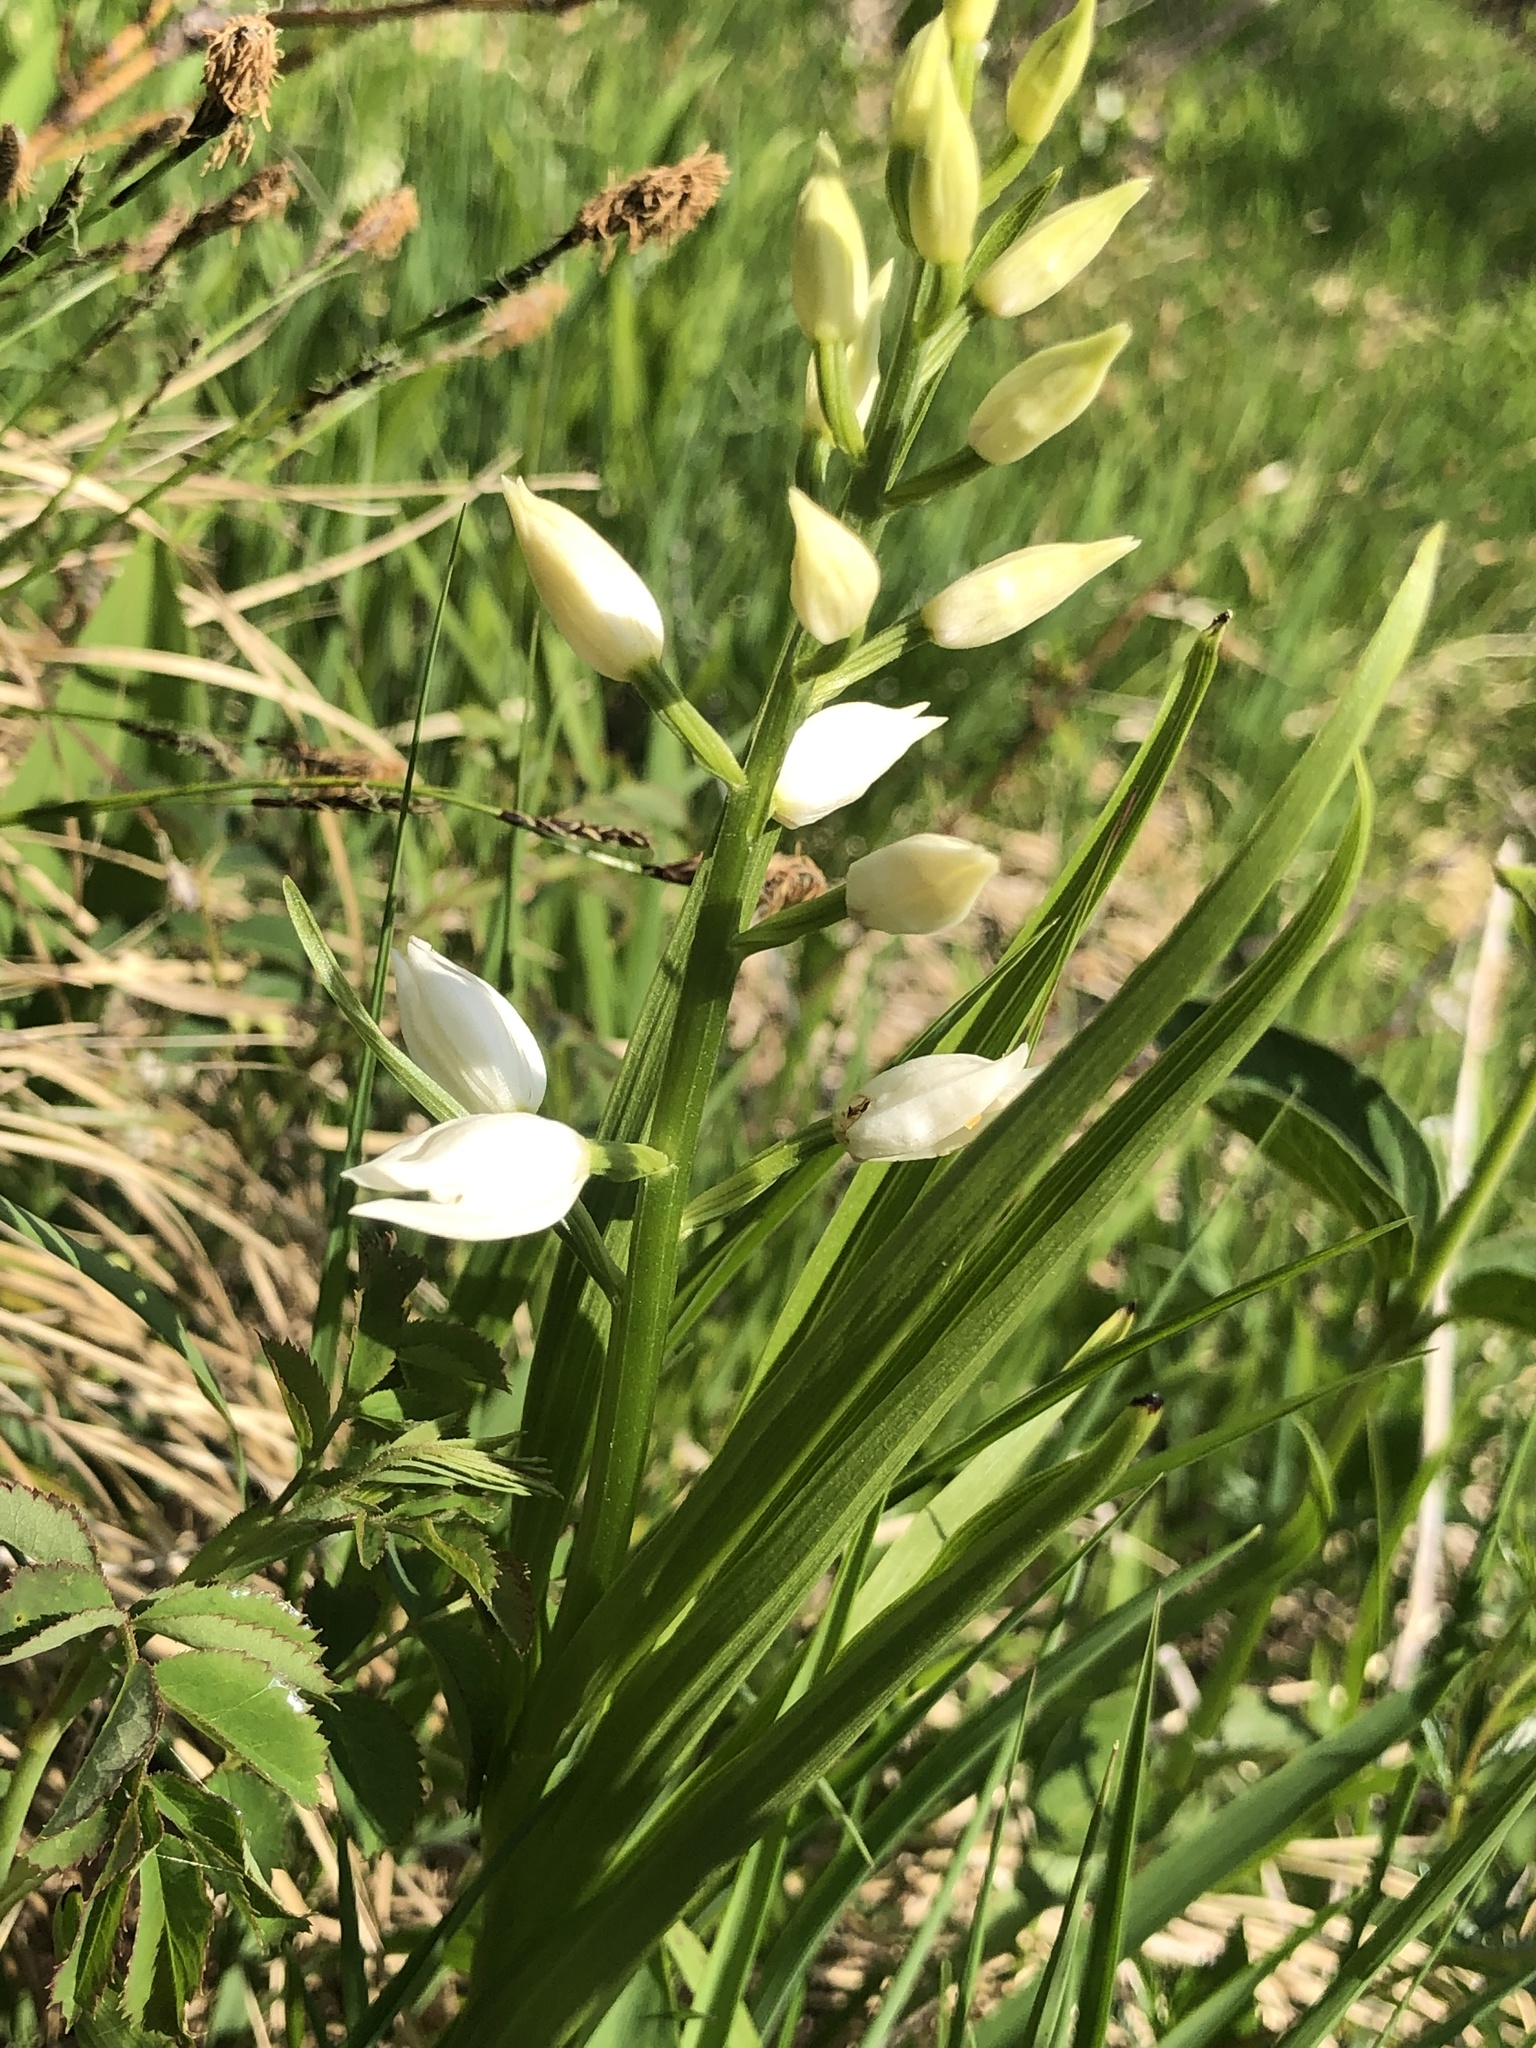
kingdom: Plantae
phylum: Tracheophyta
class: Liliopsida
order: Asparagales
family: Orchidaceae
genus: Cephalanthera
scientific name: Cephalanthera longifolia
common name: Narrow-leaved helleborine
